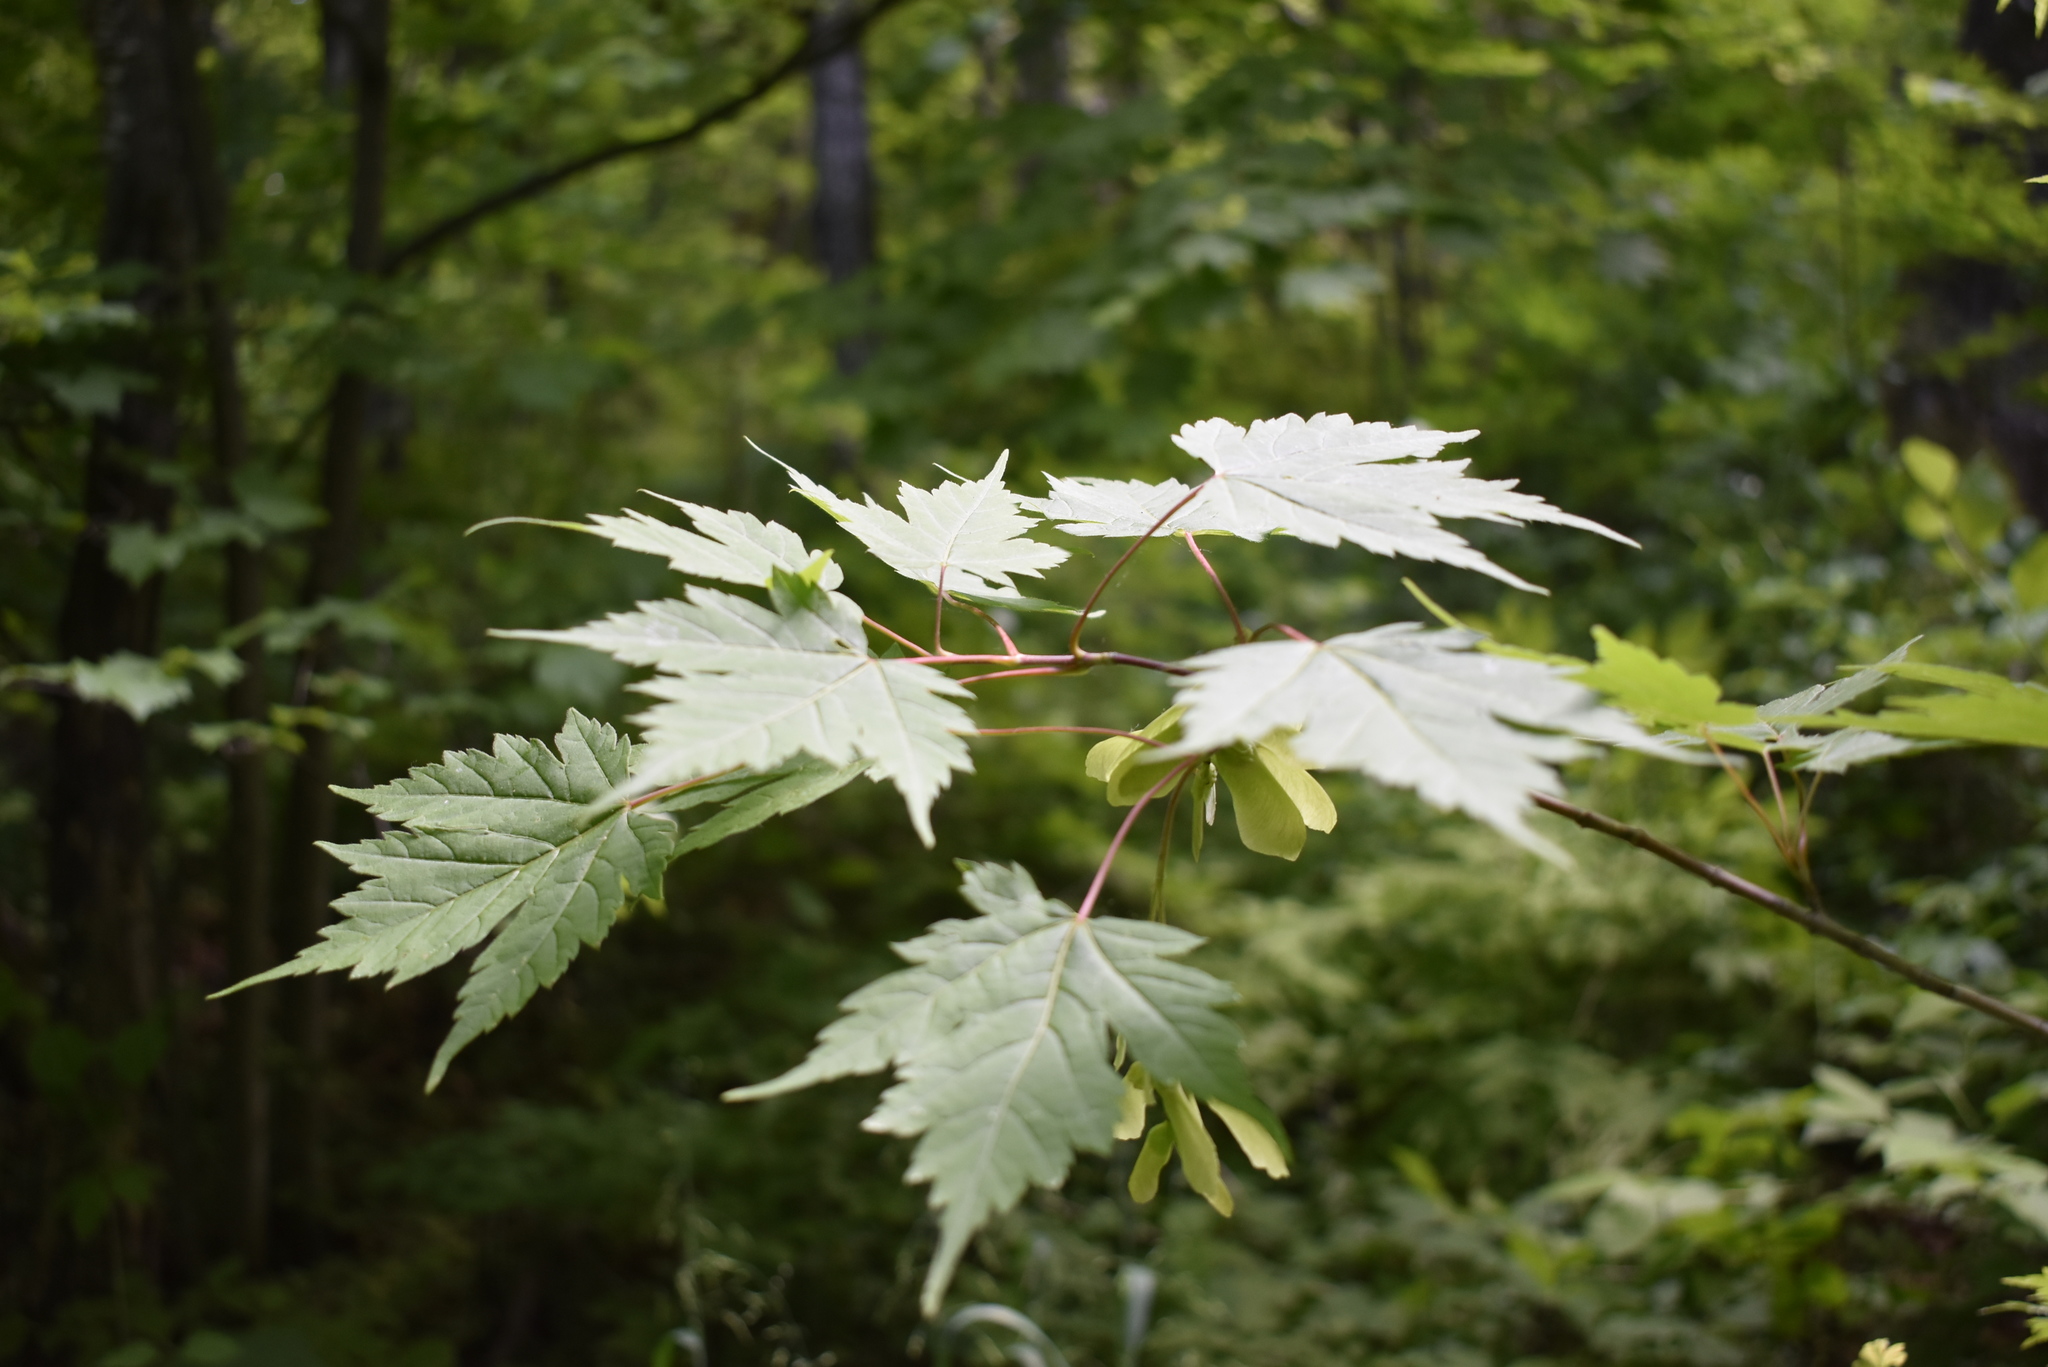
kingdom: Plantae
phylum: Tracheophyta
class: Magnoliopsida
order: Sapindales
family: Sapindaceae
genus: Acer
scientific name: Acer barbinerve
